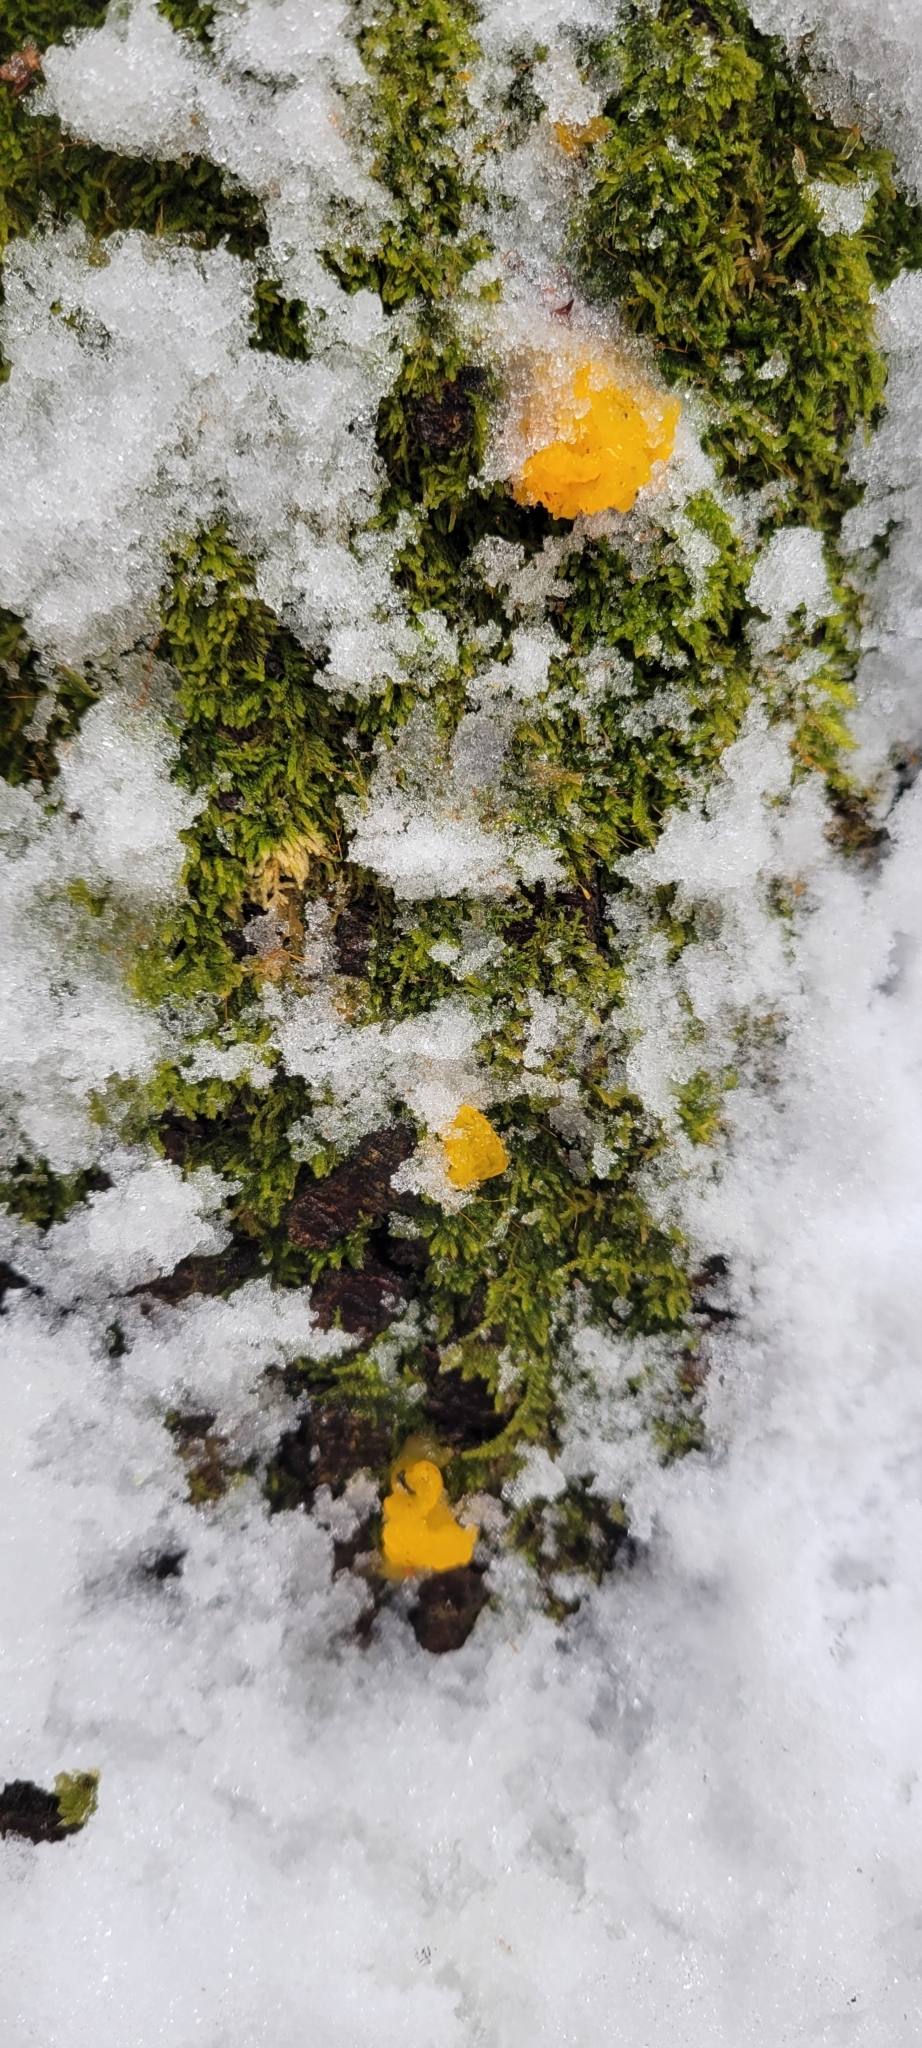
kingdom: Fungi
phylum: Basidiomycota
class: Dacrymycetes
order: Dacrymycetales
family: Dacrymycetaceae
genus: Dacrymyces
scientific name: Dacrymyces chrysospermus
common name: Orange jelly spot
